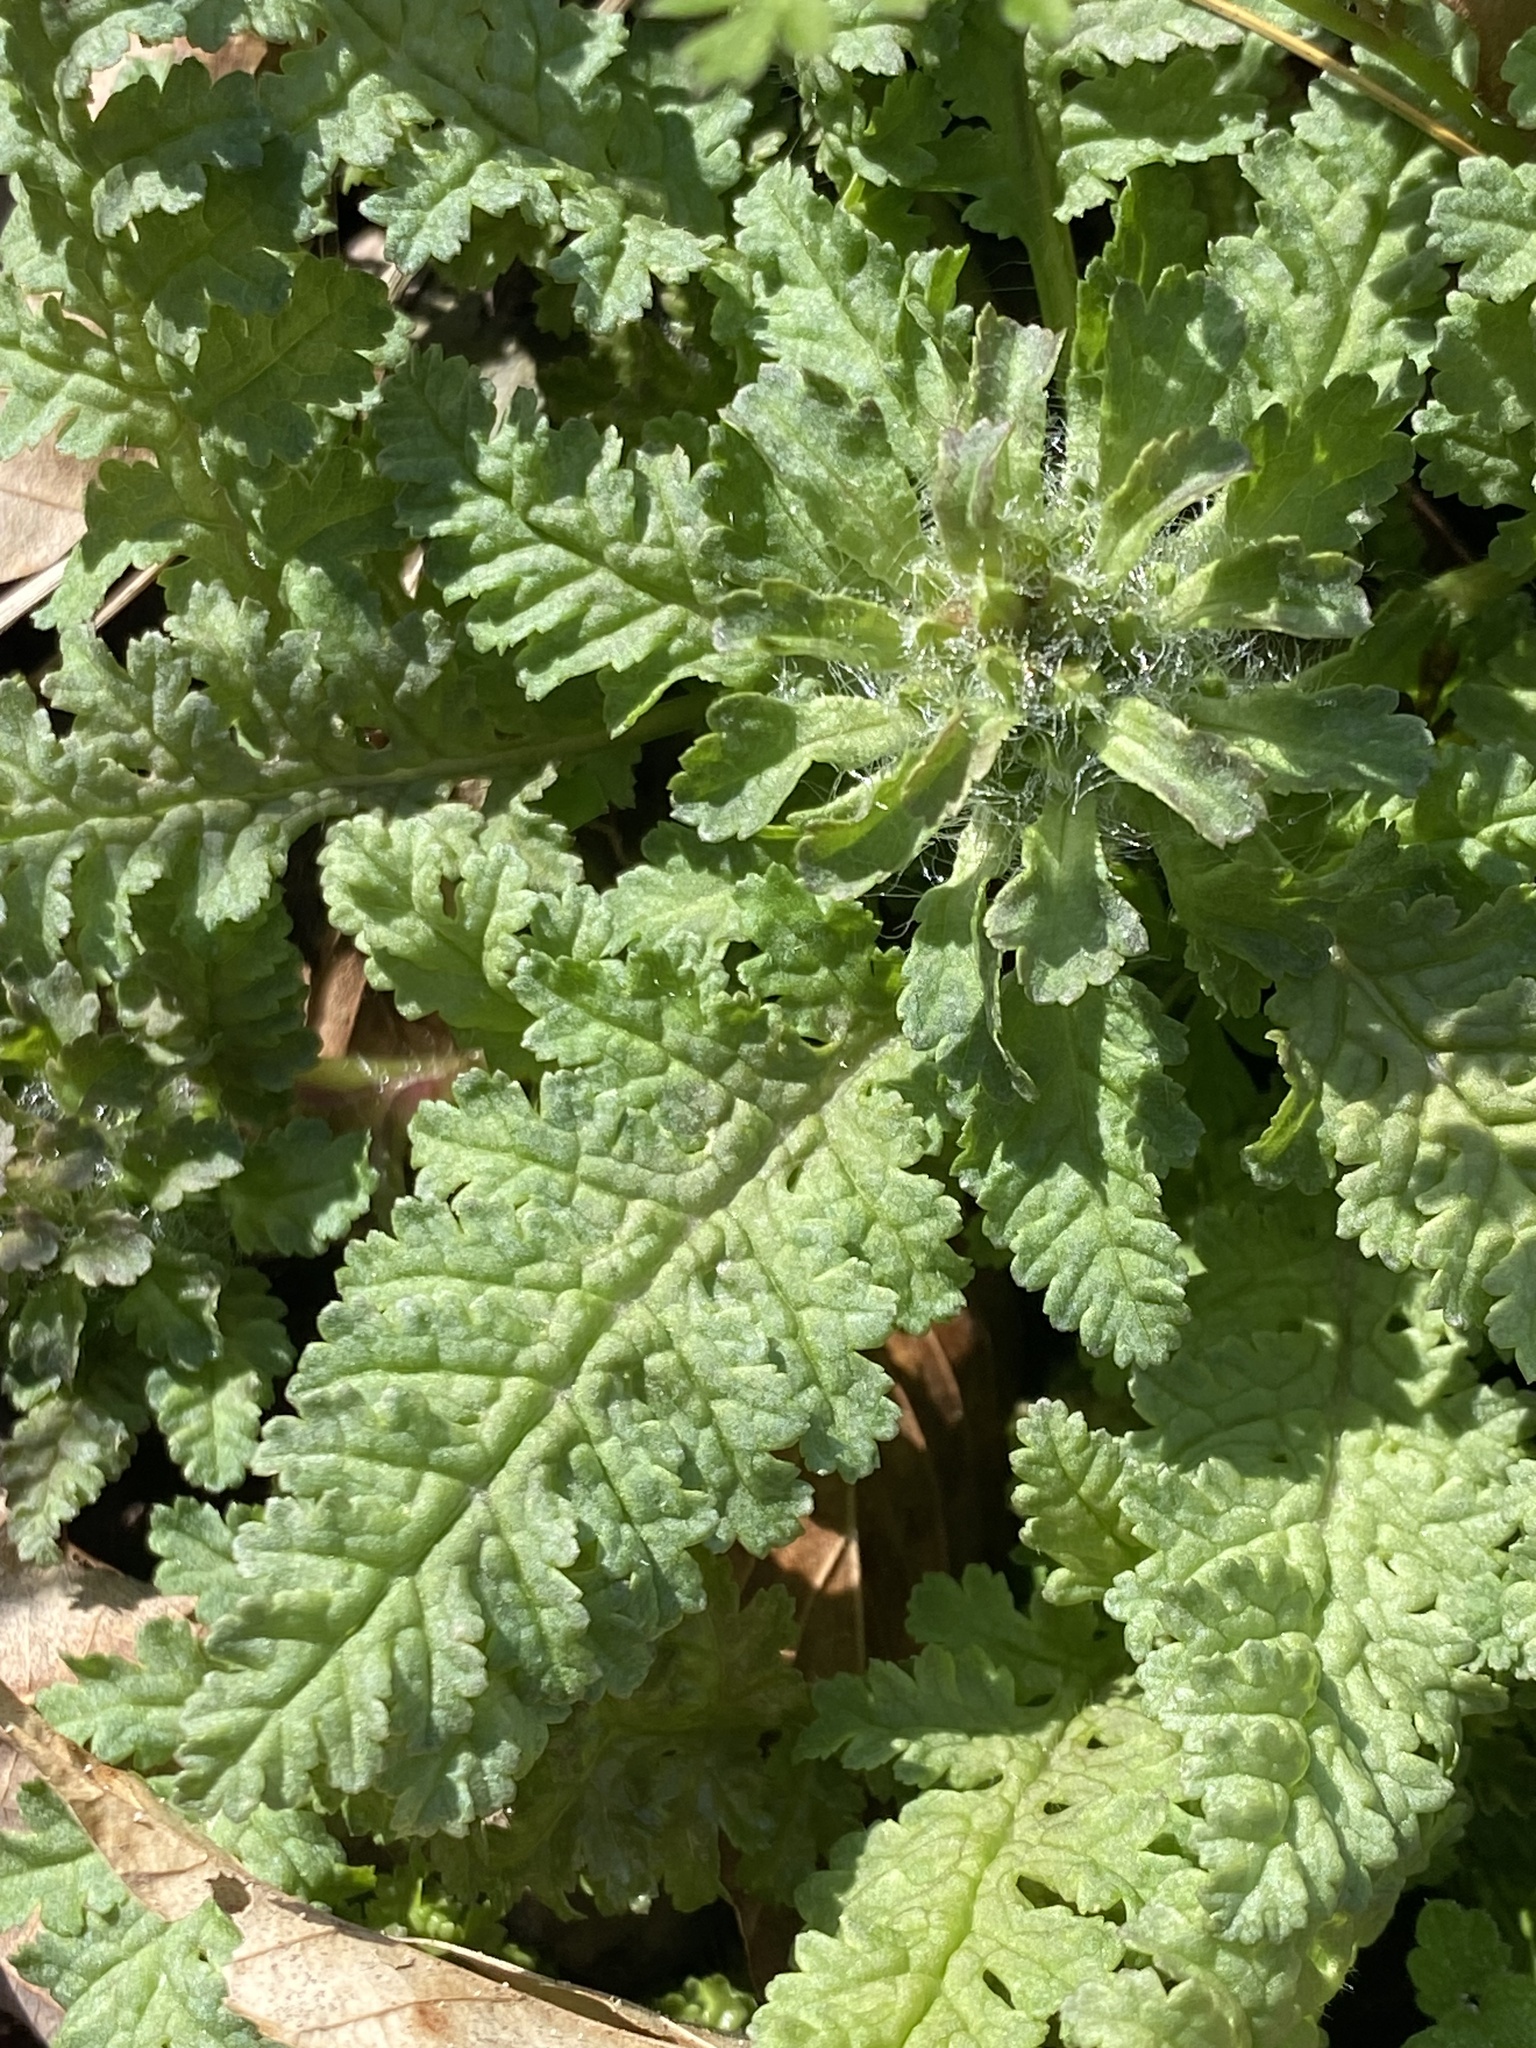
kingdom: Plantae
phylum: Tracheophyta
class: Magnoliopsida
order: Lamiales
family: Orobanchaceae
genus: Pedicularis
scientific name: Pedicularis canadensis
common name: Early lousewort
